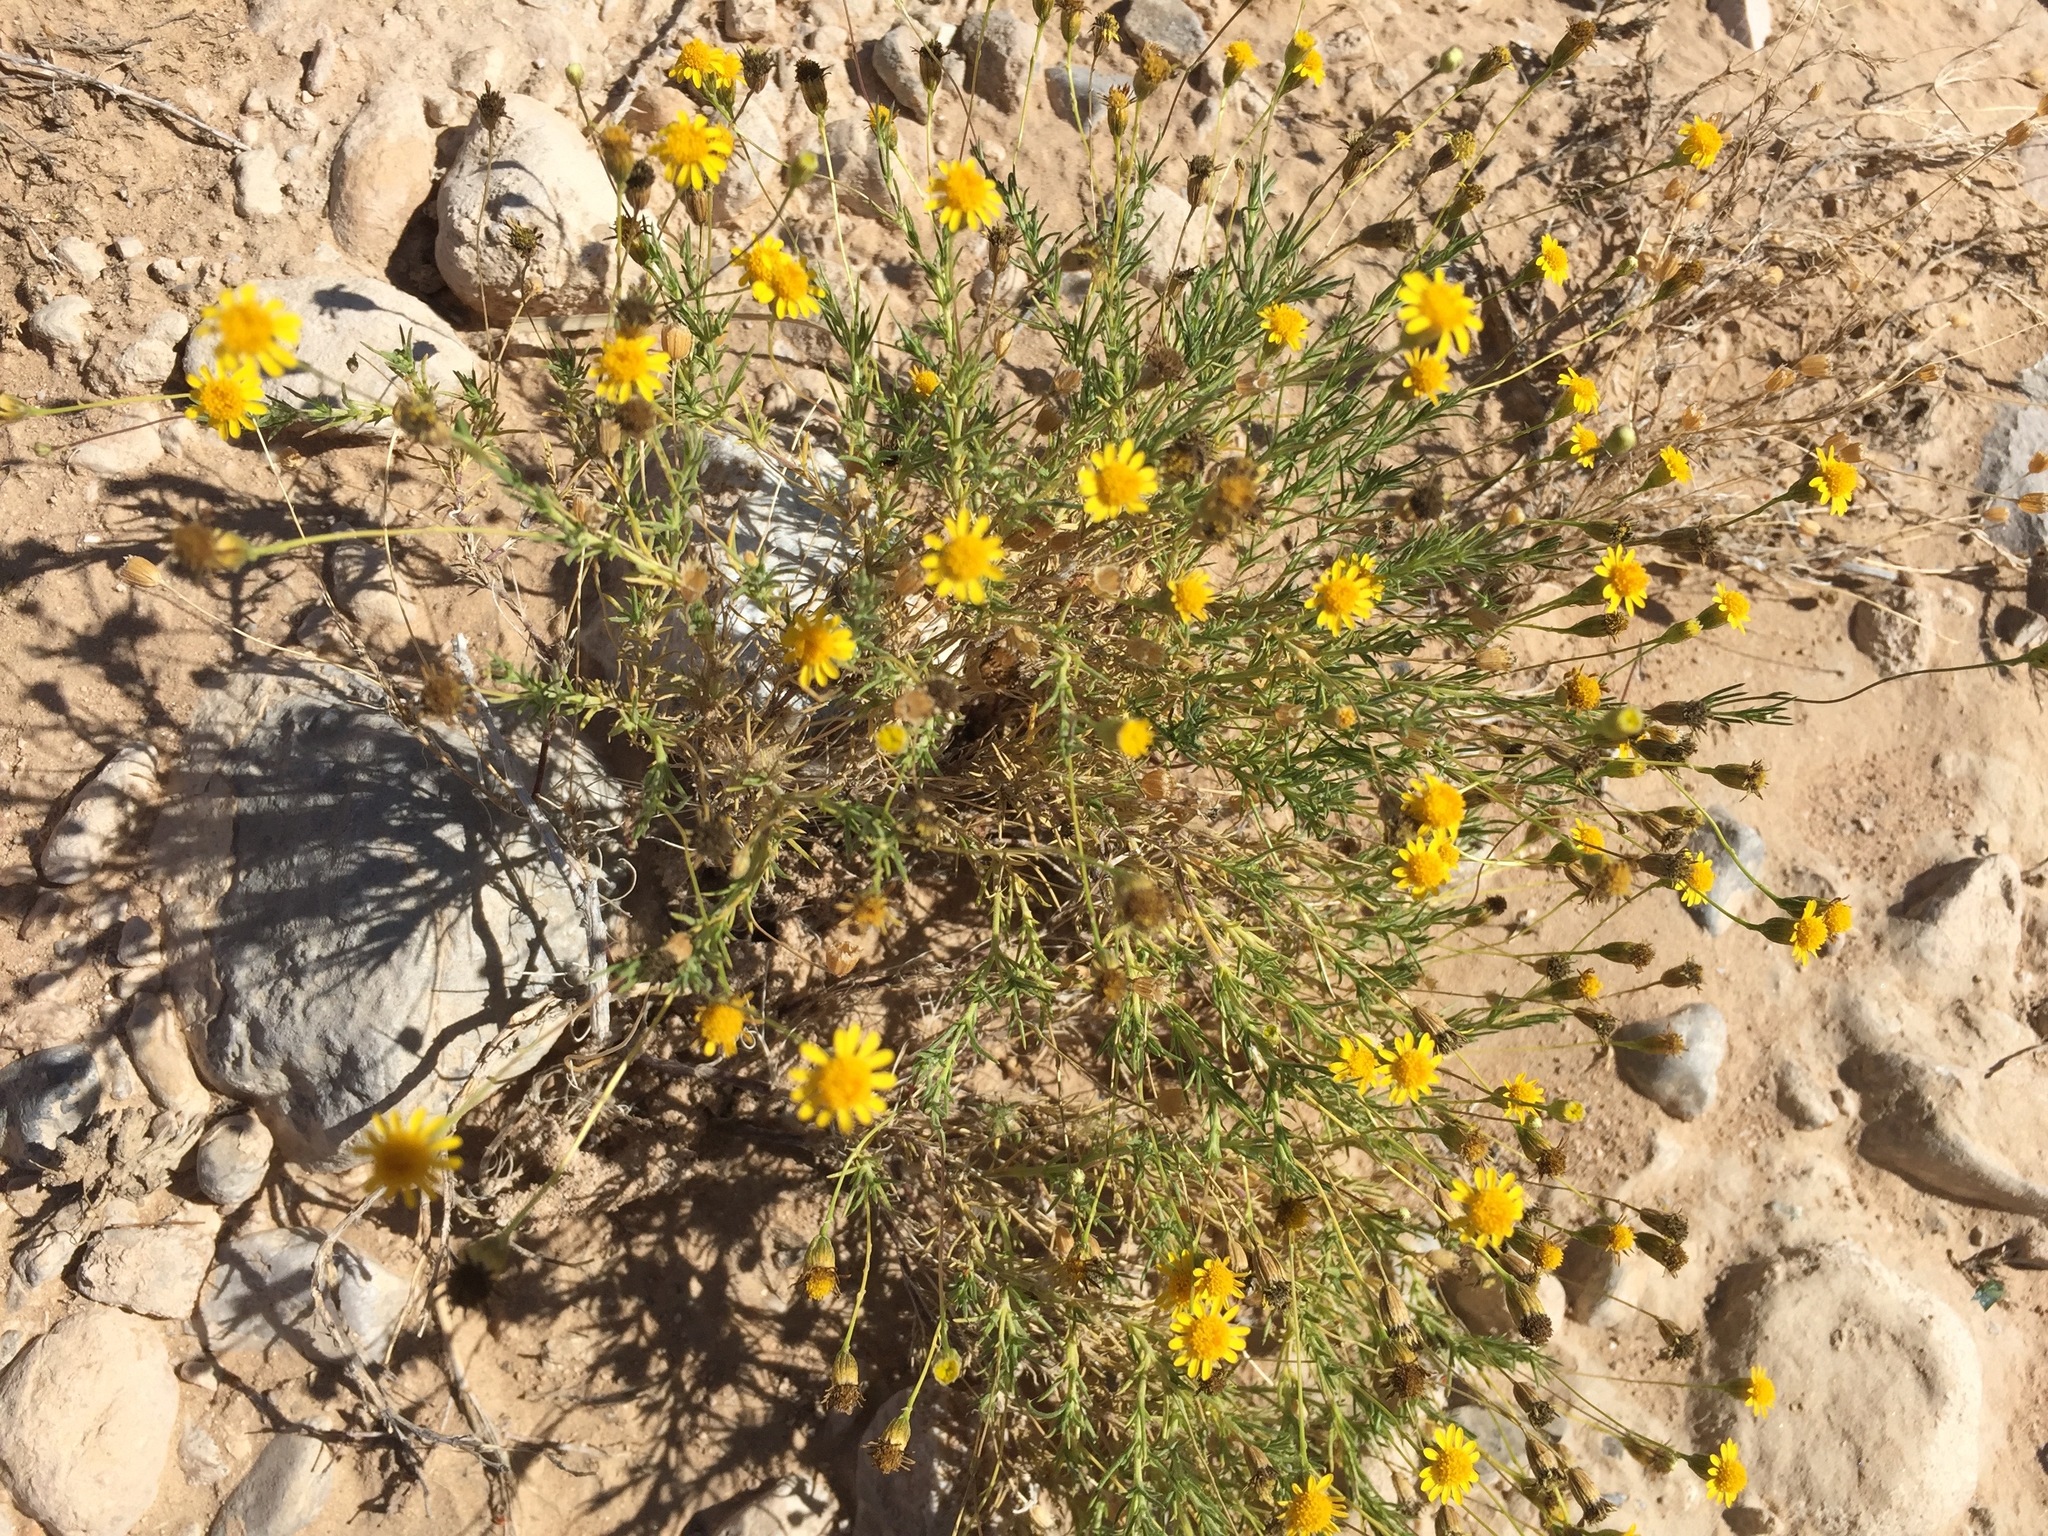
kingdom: Plantae
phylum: Tracheophyta
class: Magnoliopsida
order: Asterales
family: Asteraceae
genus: Thymophylla
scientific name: Thymophylla pentachaeta
